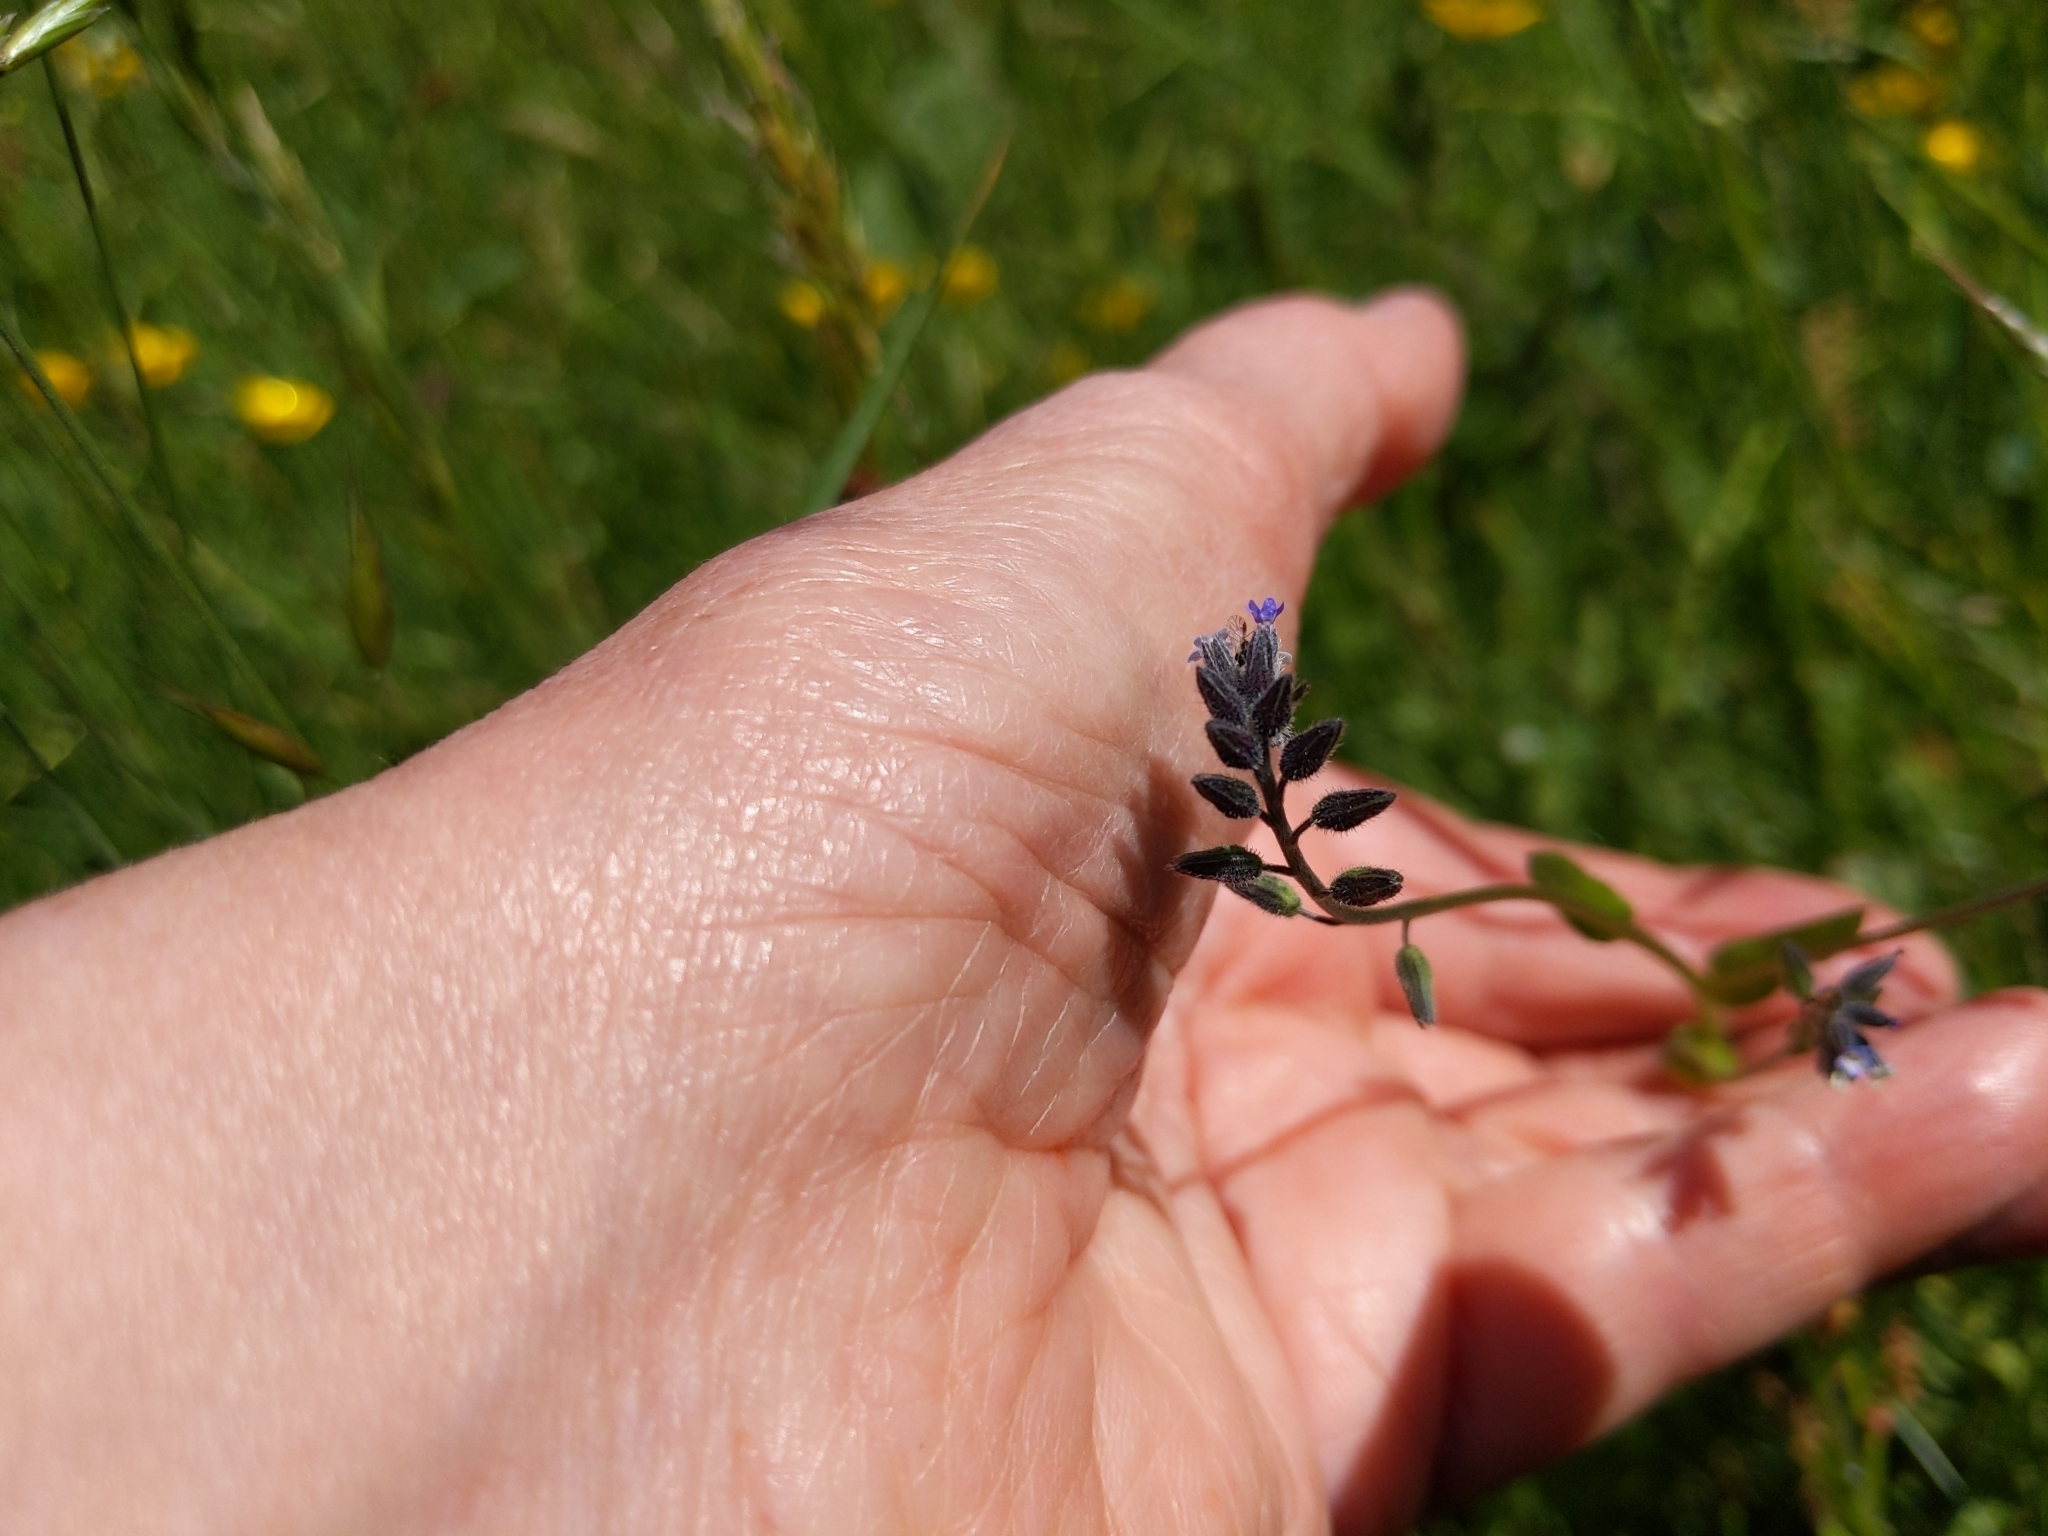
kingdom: Plantae
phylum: Tracheophyta
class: Magnoliopsida
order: Boraginales
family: Boraginaceae
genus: Myosotis
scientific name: Myosotis discolor
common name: Changing forget-me-not
